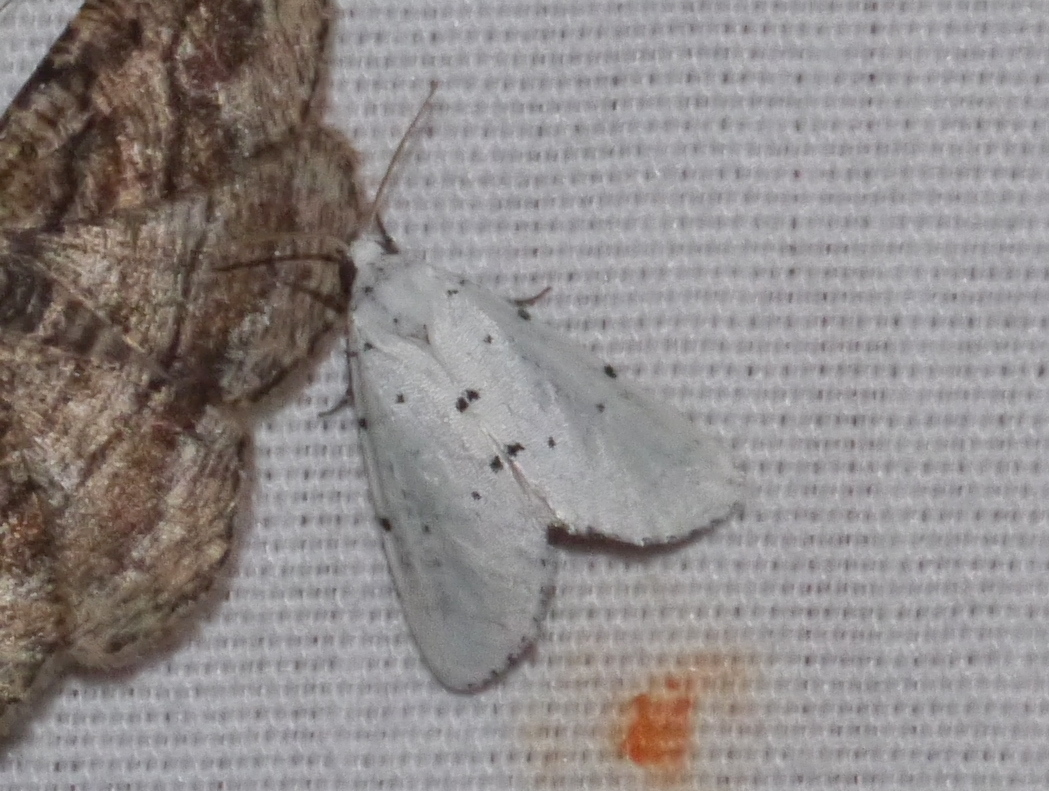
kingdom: Animalia
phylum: Arthropoda
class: Insecta
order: Lepidoptera
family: Noctuidae
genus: Grotella
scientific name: Grotella sampita
